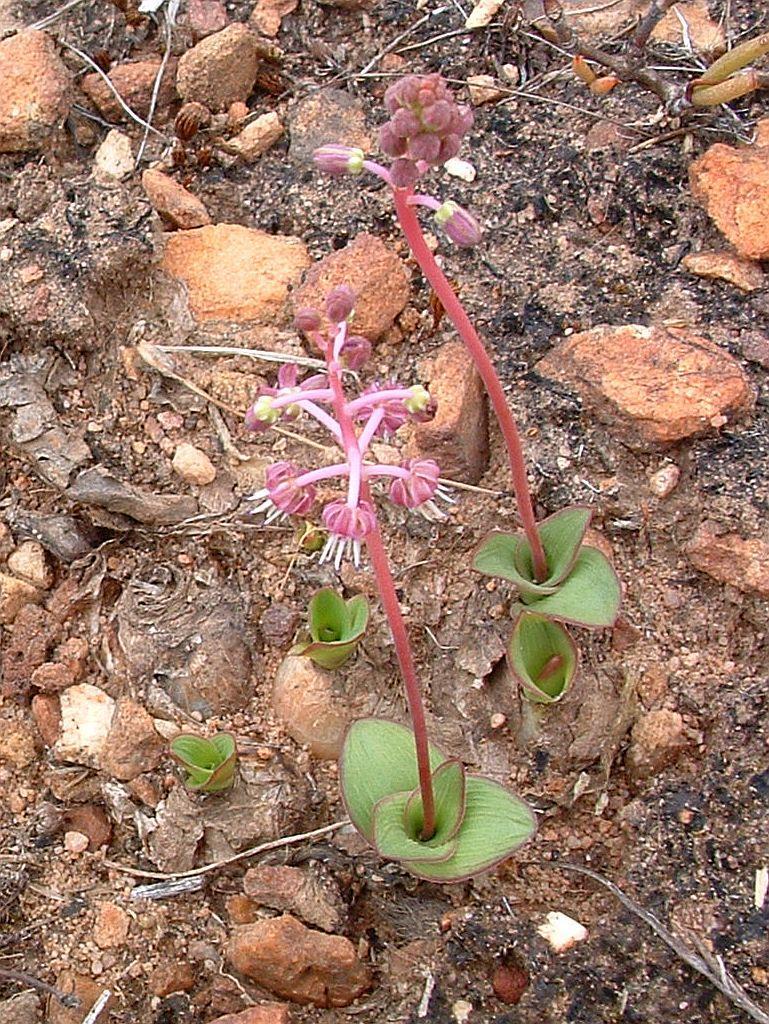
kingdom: Plantae
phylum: Tracheophyta
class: Liliopsida
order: Asparagales
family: Asparagaceae
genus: Ledebouria
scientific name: Ledebouria ovalifolia
